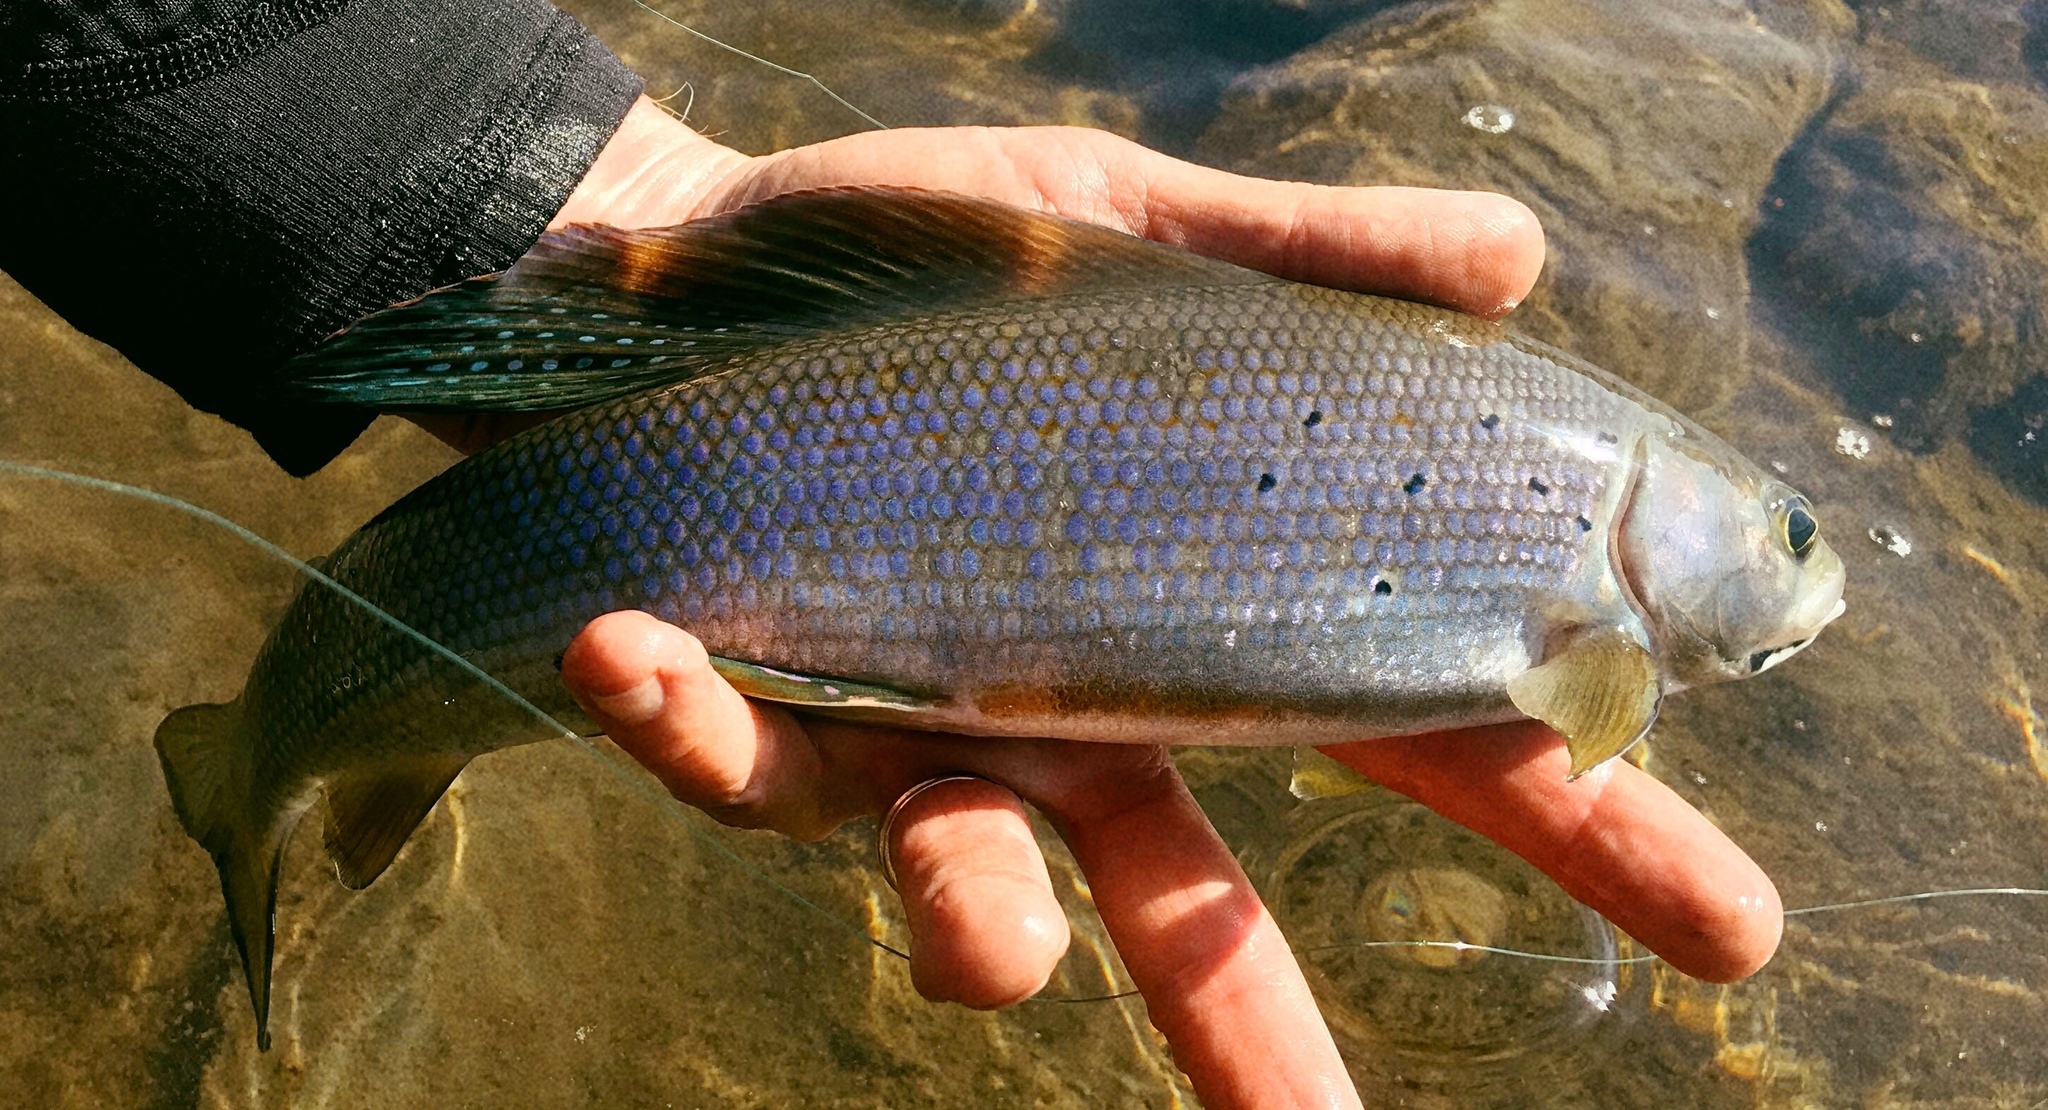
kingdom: Animalia
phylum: Chordata
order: Salmoniformes
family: Salmonidae
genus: Thymallus
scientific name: Thymallus arcticus
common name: Arctic grayling
